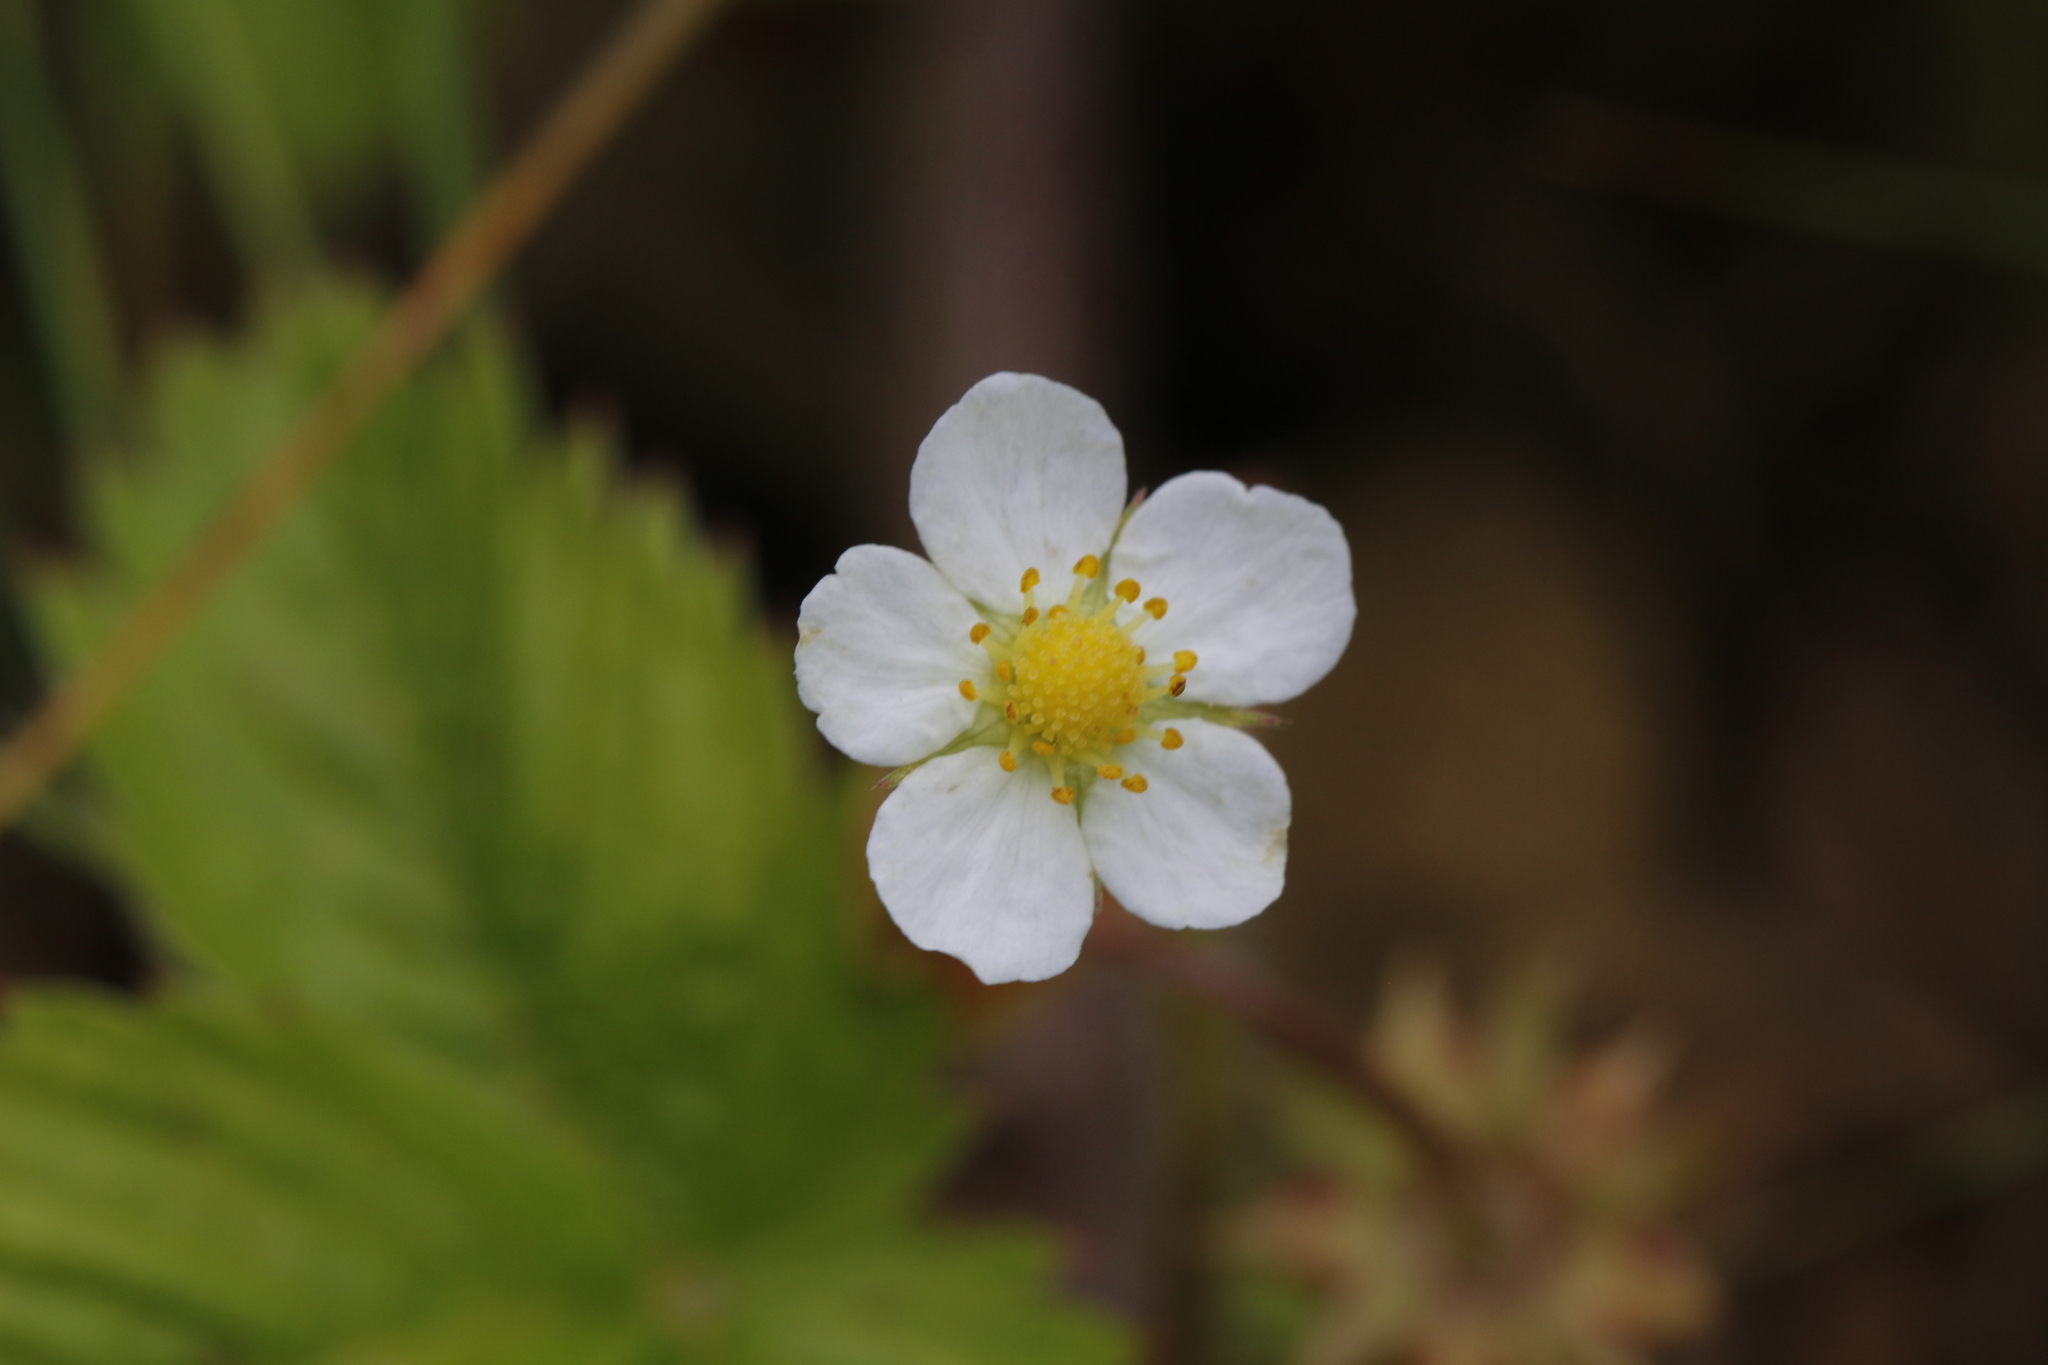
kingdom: Plantae
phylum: Tracheophyta
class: Magnoliopsida
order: Rosales
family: Rosaceae
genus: Fragaria
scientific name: Fragaria vesca
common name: Wild strawberry
